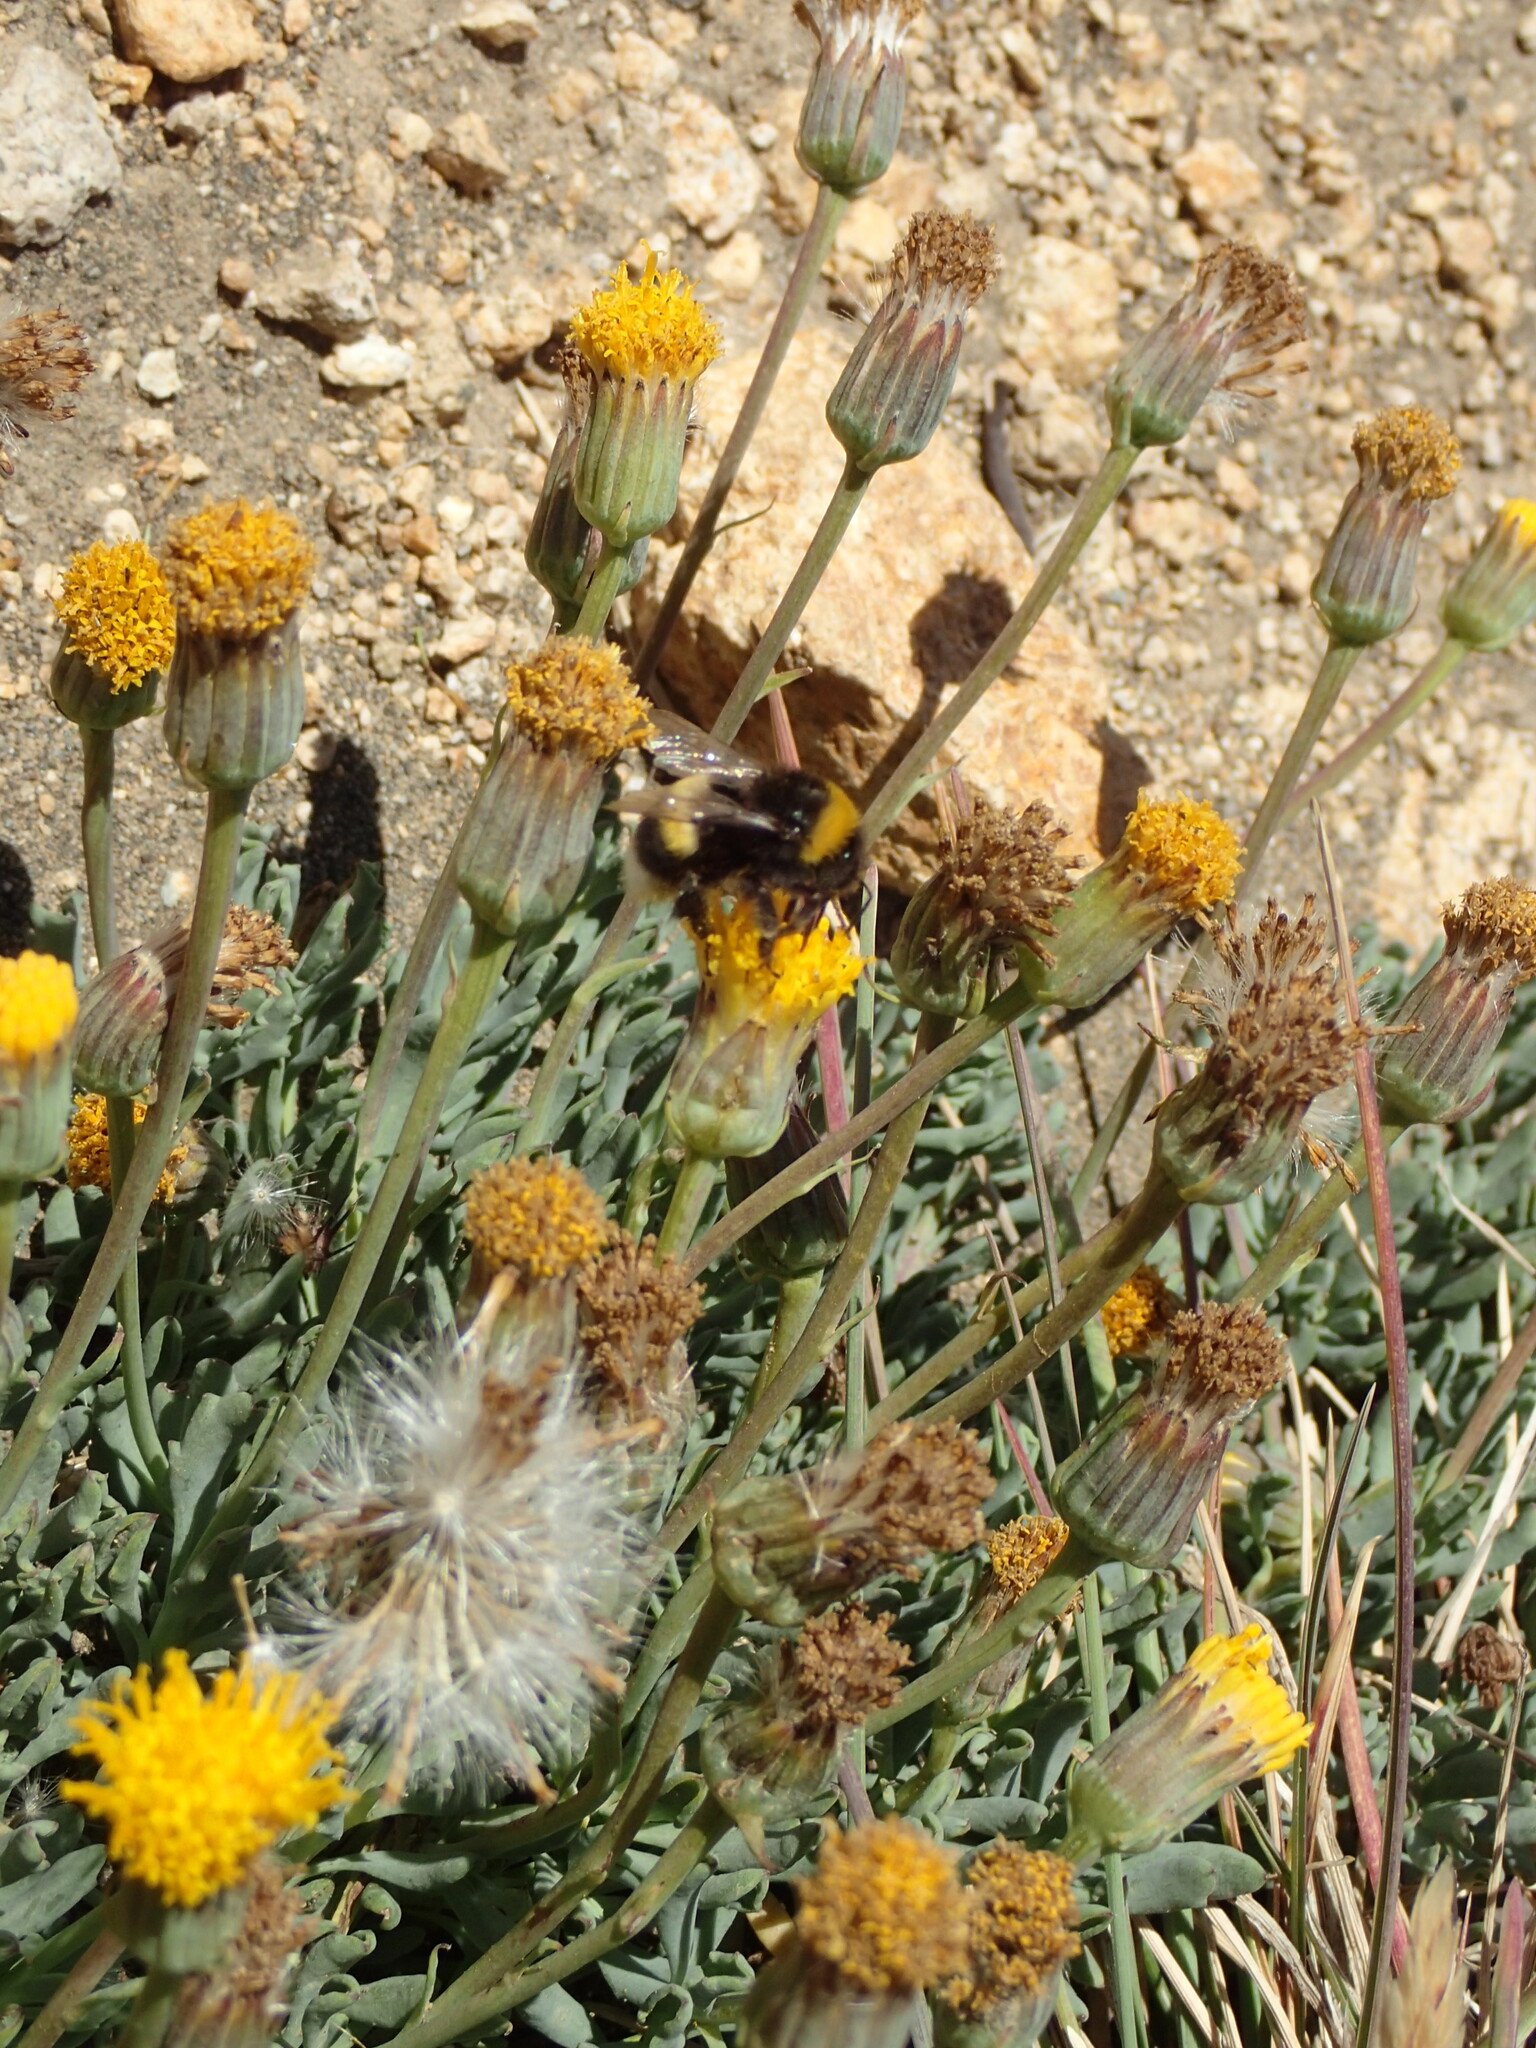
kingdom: Animalia
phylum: Arthropoda
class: Insecta
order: Hymenoptera
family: Apidae
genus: Bombus
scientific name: Bombus terrestris
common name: Buff-tailed bumblebee
